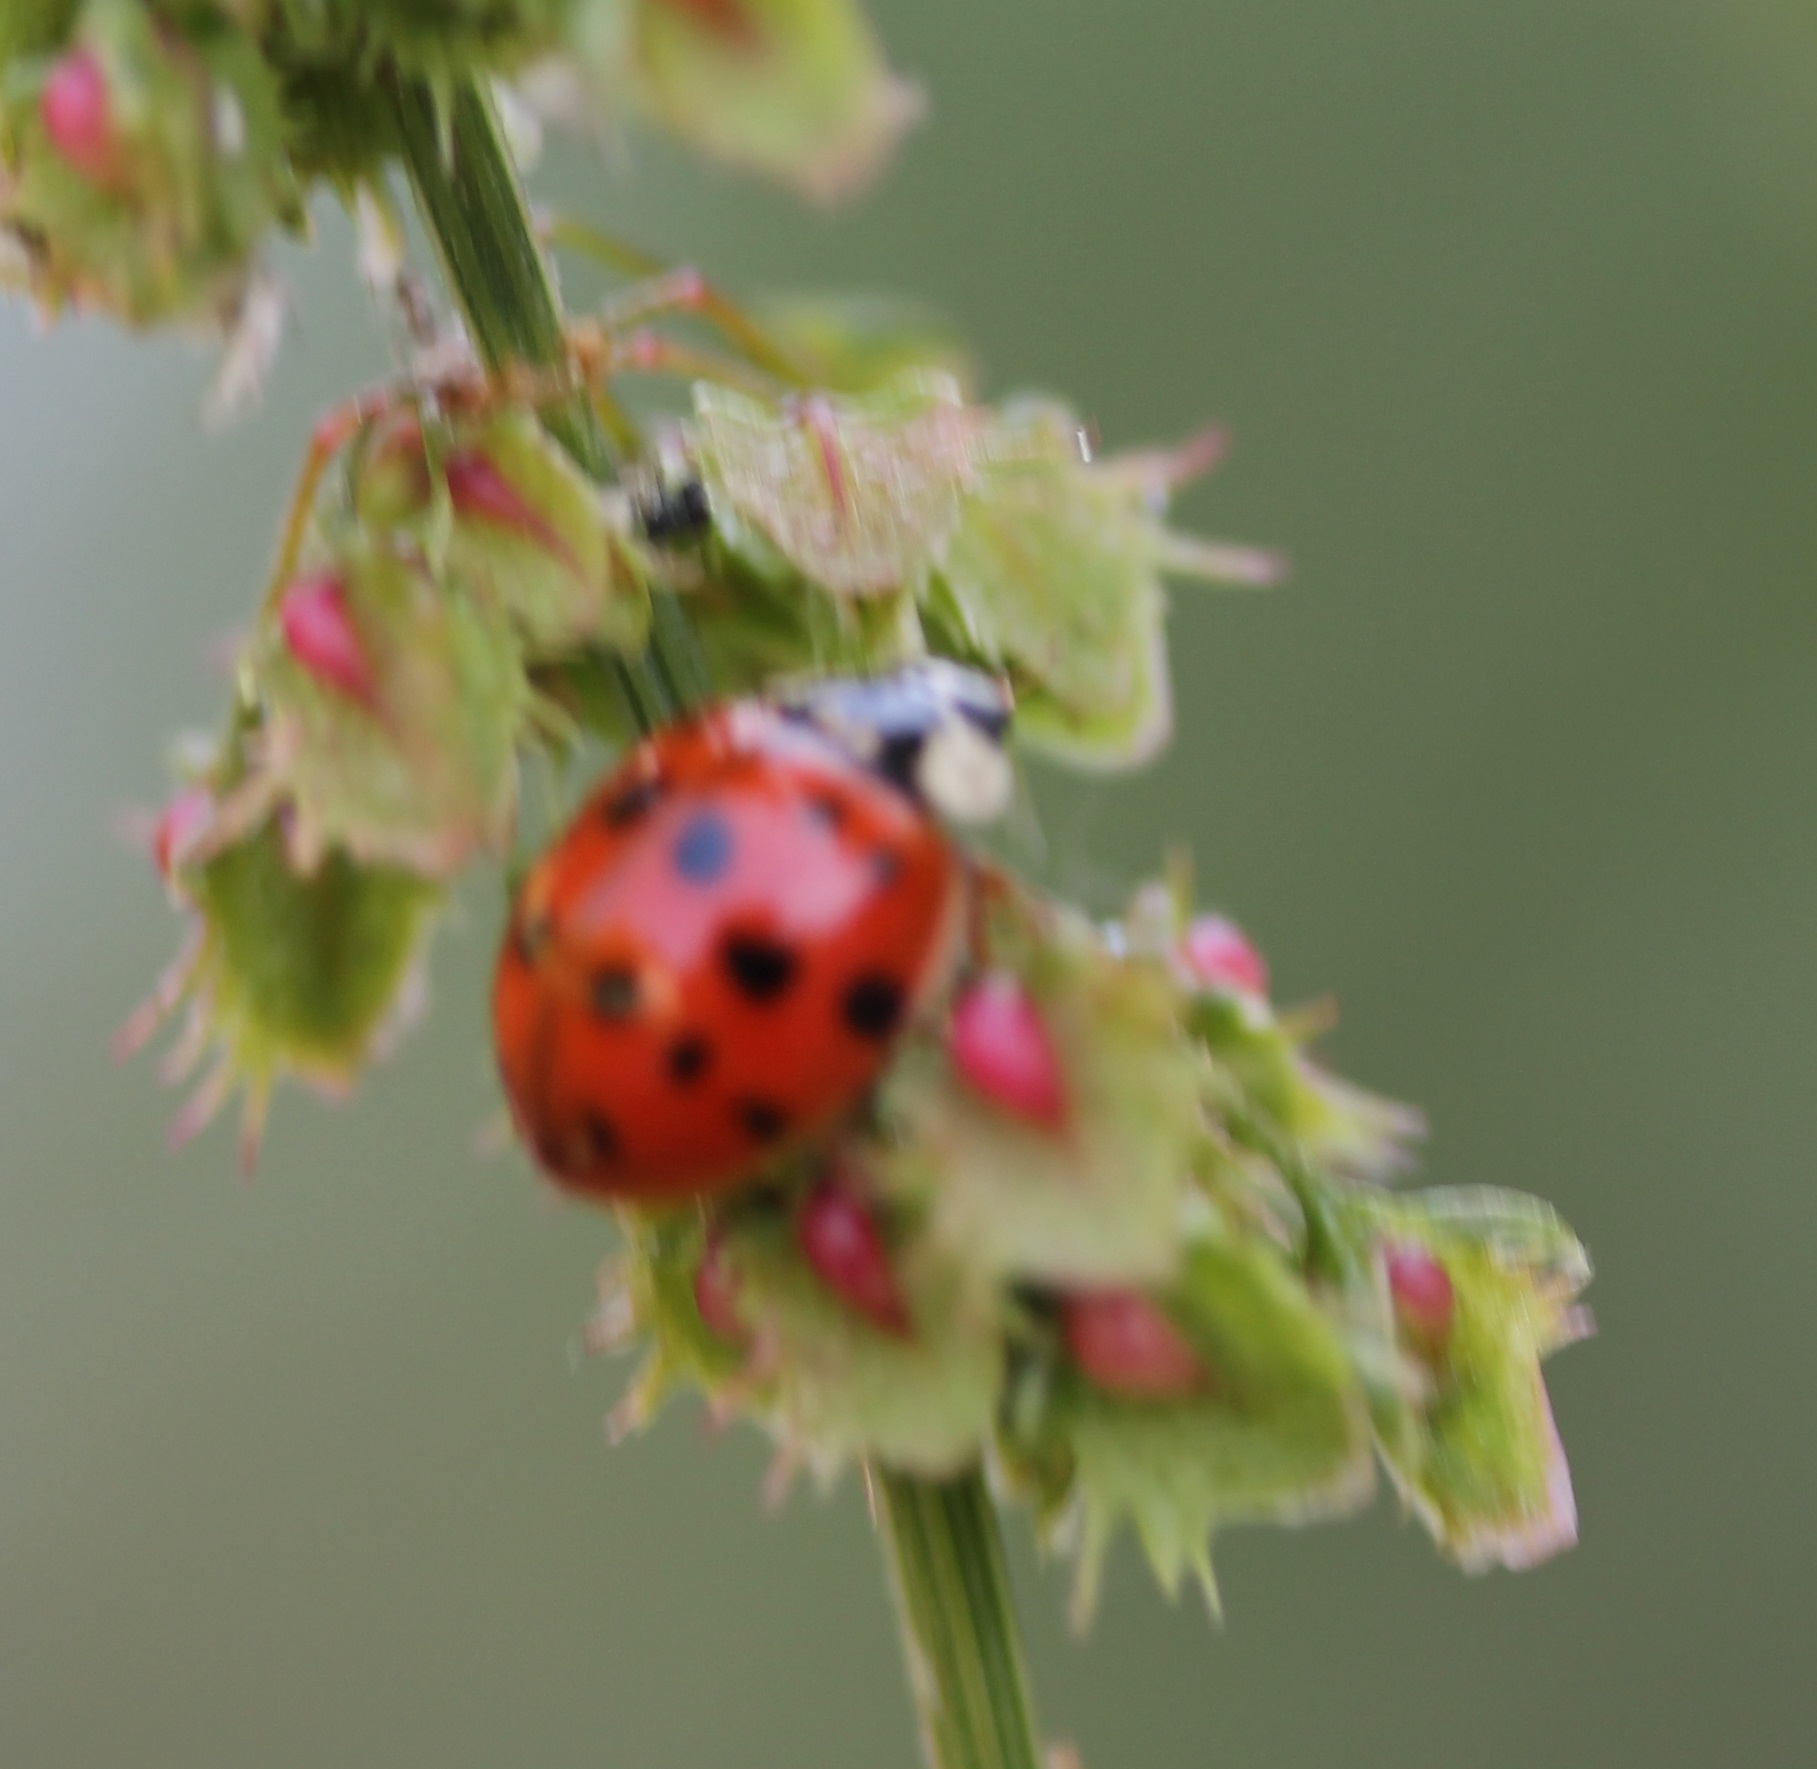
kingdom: Animalia
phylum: Arthropoda
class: Insecta
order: Coleoptera
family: Coccinellidae
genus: Harmonia
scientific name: Harmonia axyridis
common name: Harlequin ladybird
